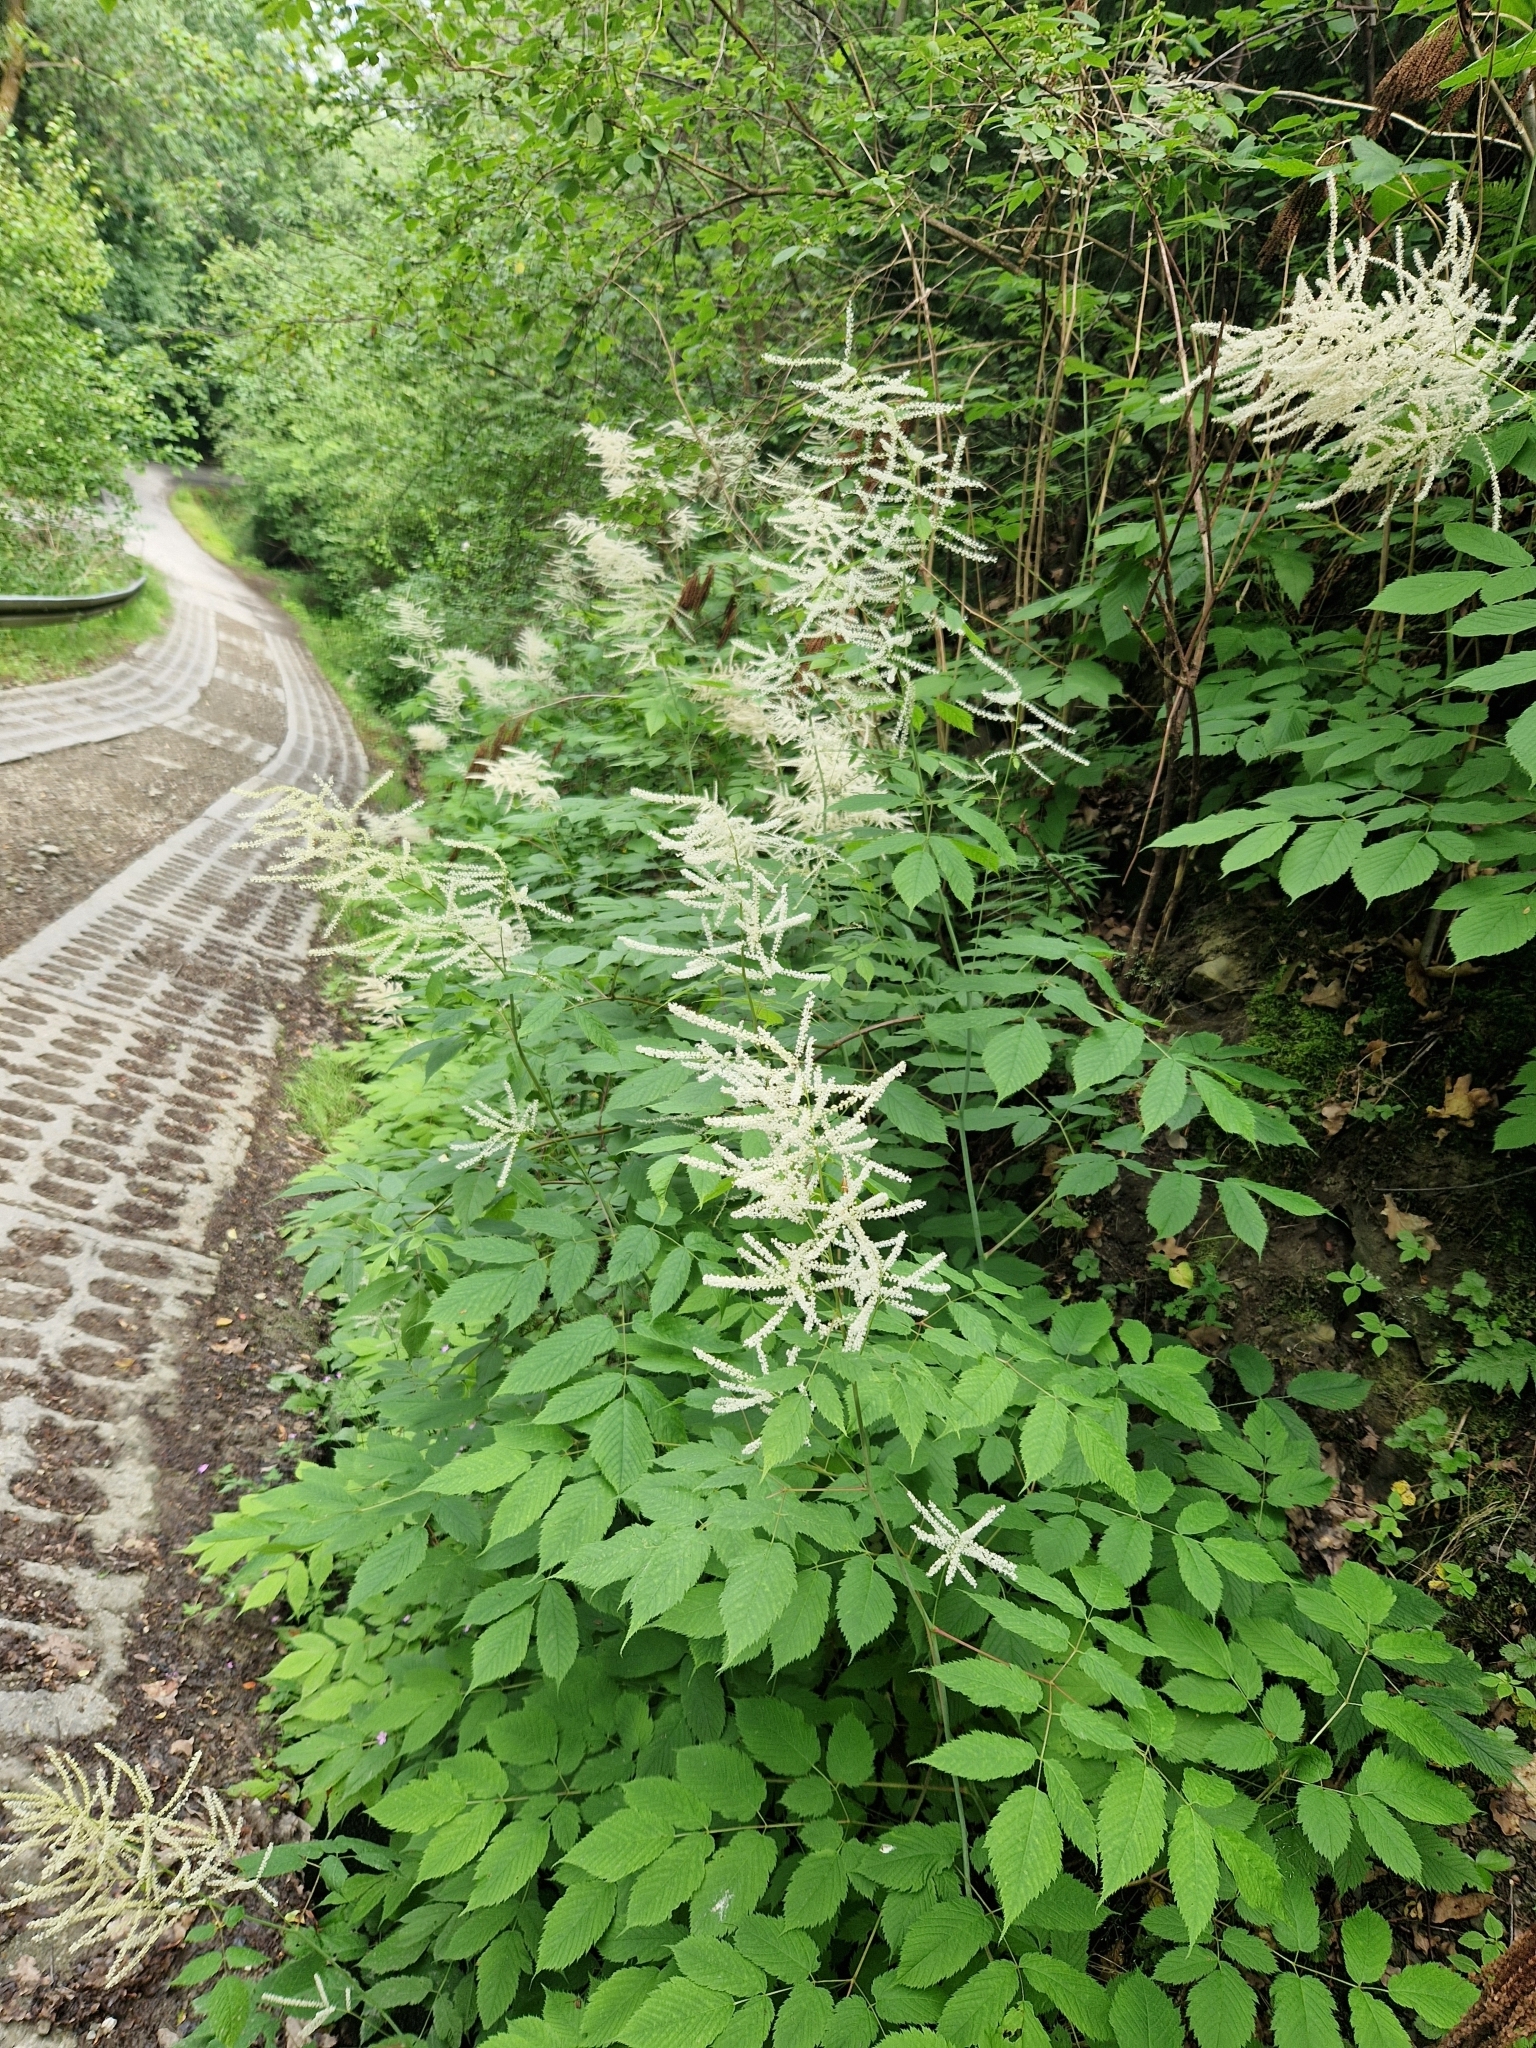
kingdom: Plantae
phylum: Tracheophyta
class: Magnoliopsida
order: Rosales
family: Rosaceae
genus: Aruncus
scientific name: Aruncus dioicus
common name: Buck's-beard
